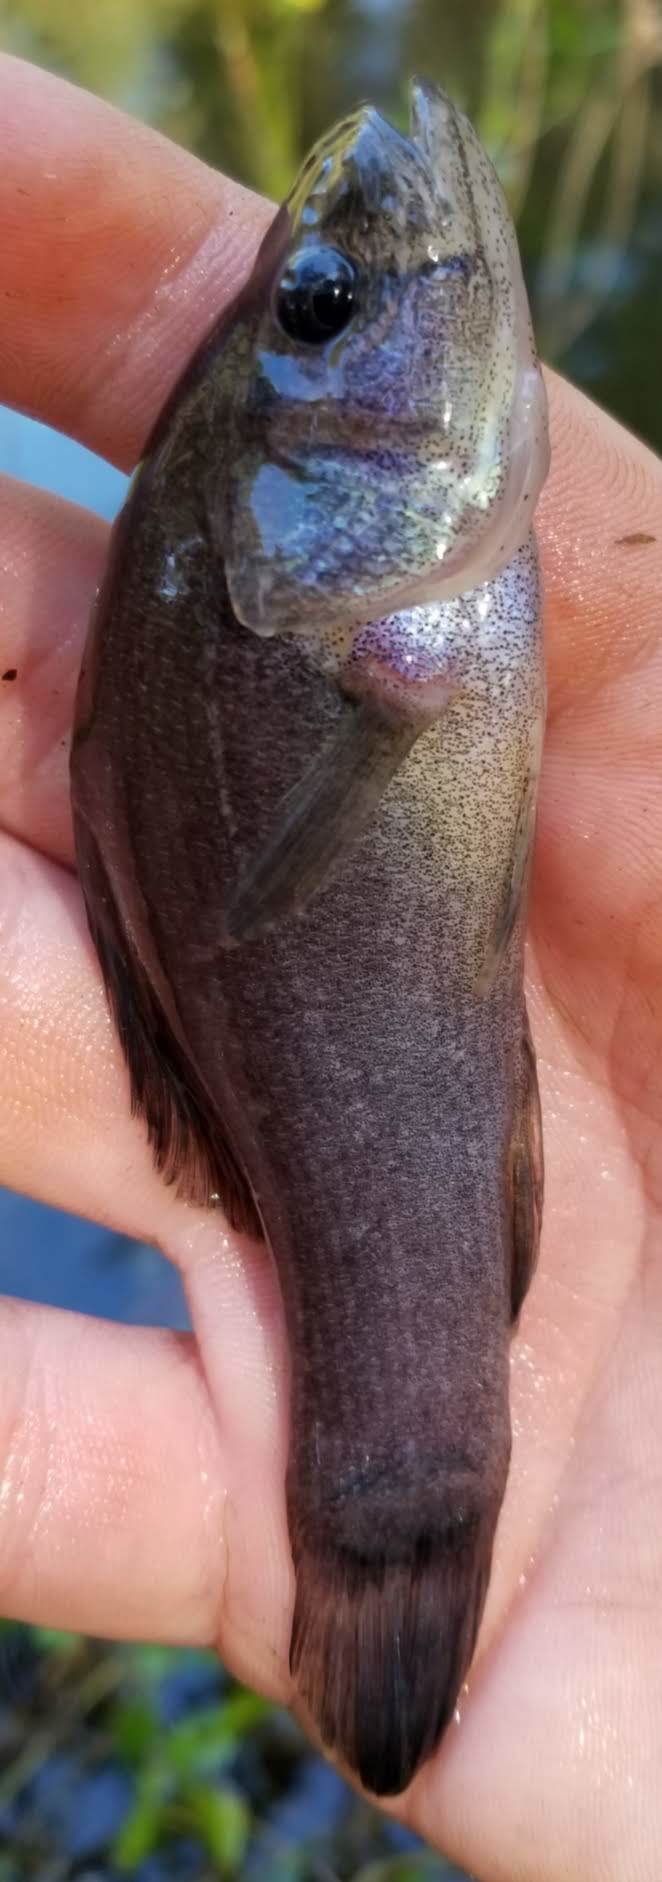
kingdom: Animalia
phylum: Chordata
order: Percopsiformes
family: Aphredoderidae
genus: Aphredoderus
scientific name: Aphredoderus sayanus
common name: Pirate perch
